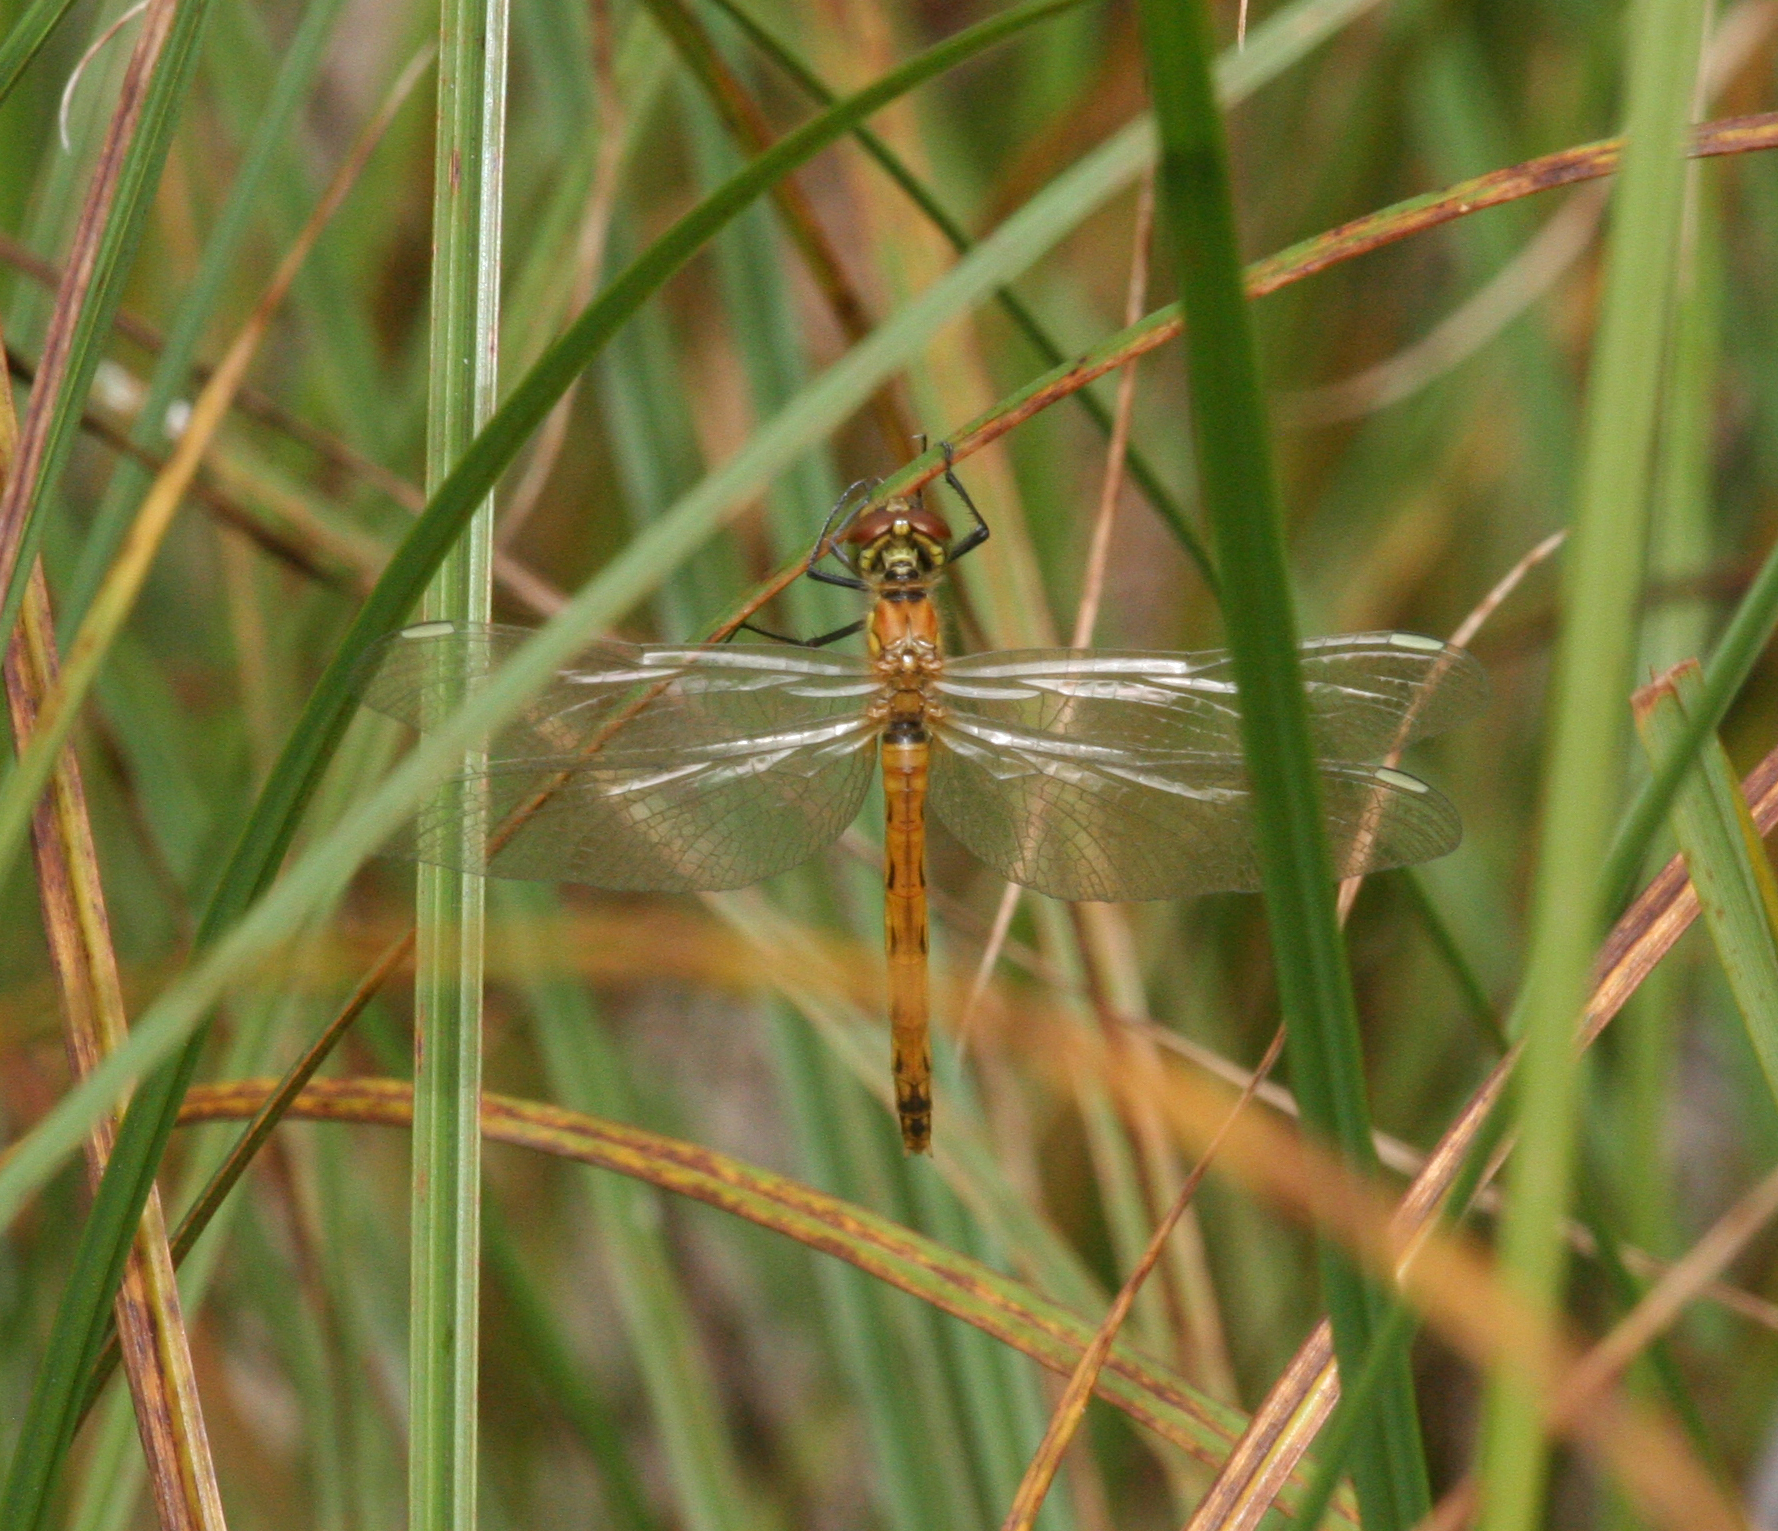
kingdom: Animalia
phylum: Arthropoda
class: Insecta
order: Odonata
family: Libellulidae
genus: Sympetrum
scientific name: Sympetrum depressiusculum
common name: Spotted darter
